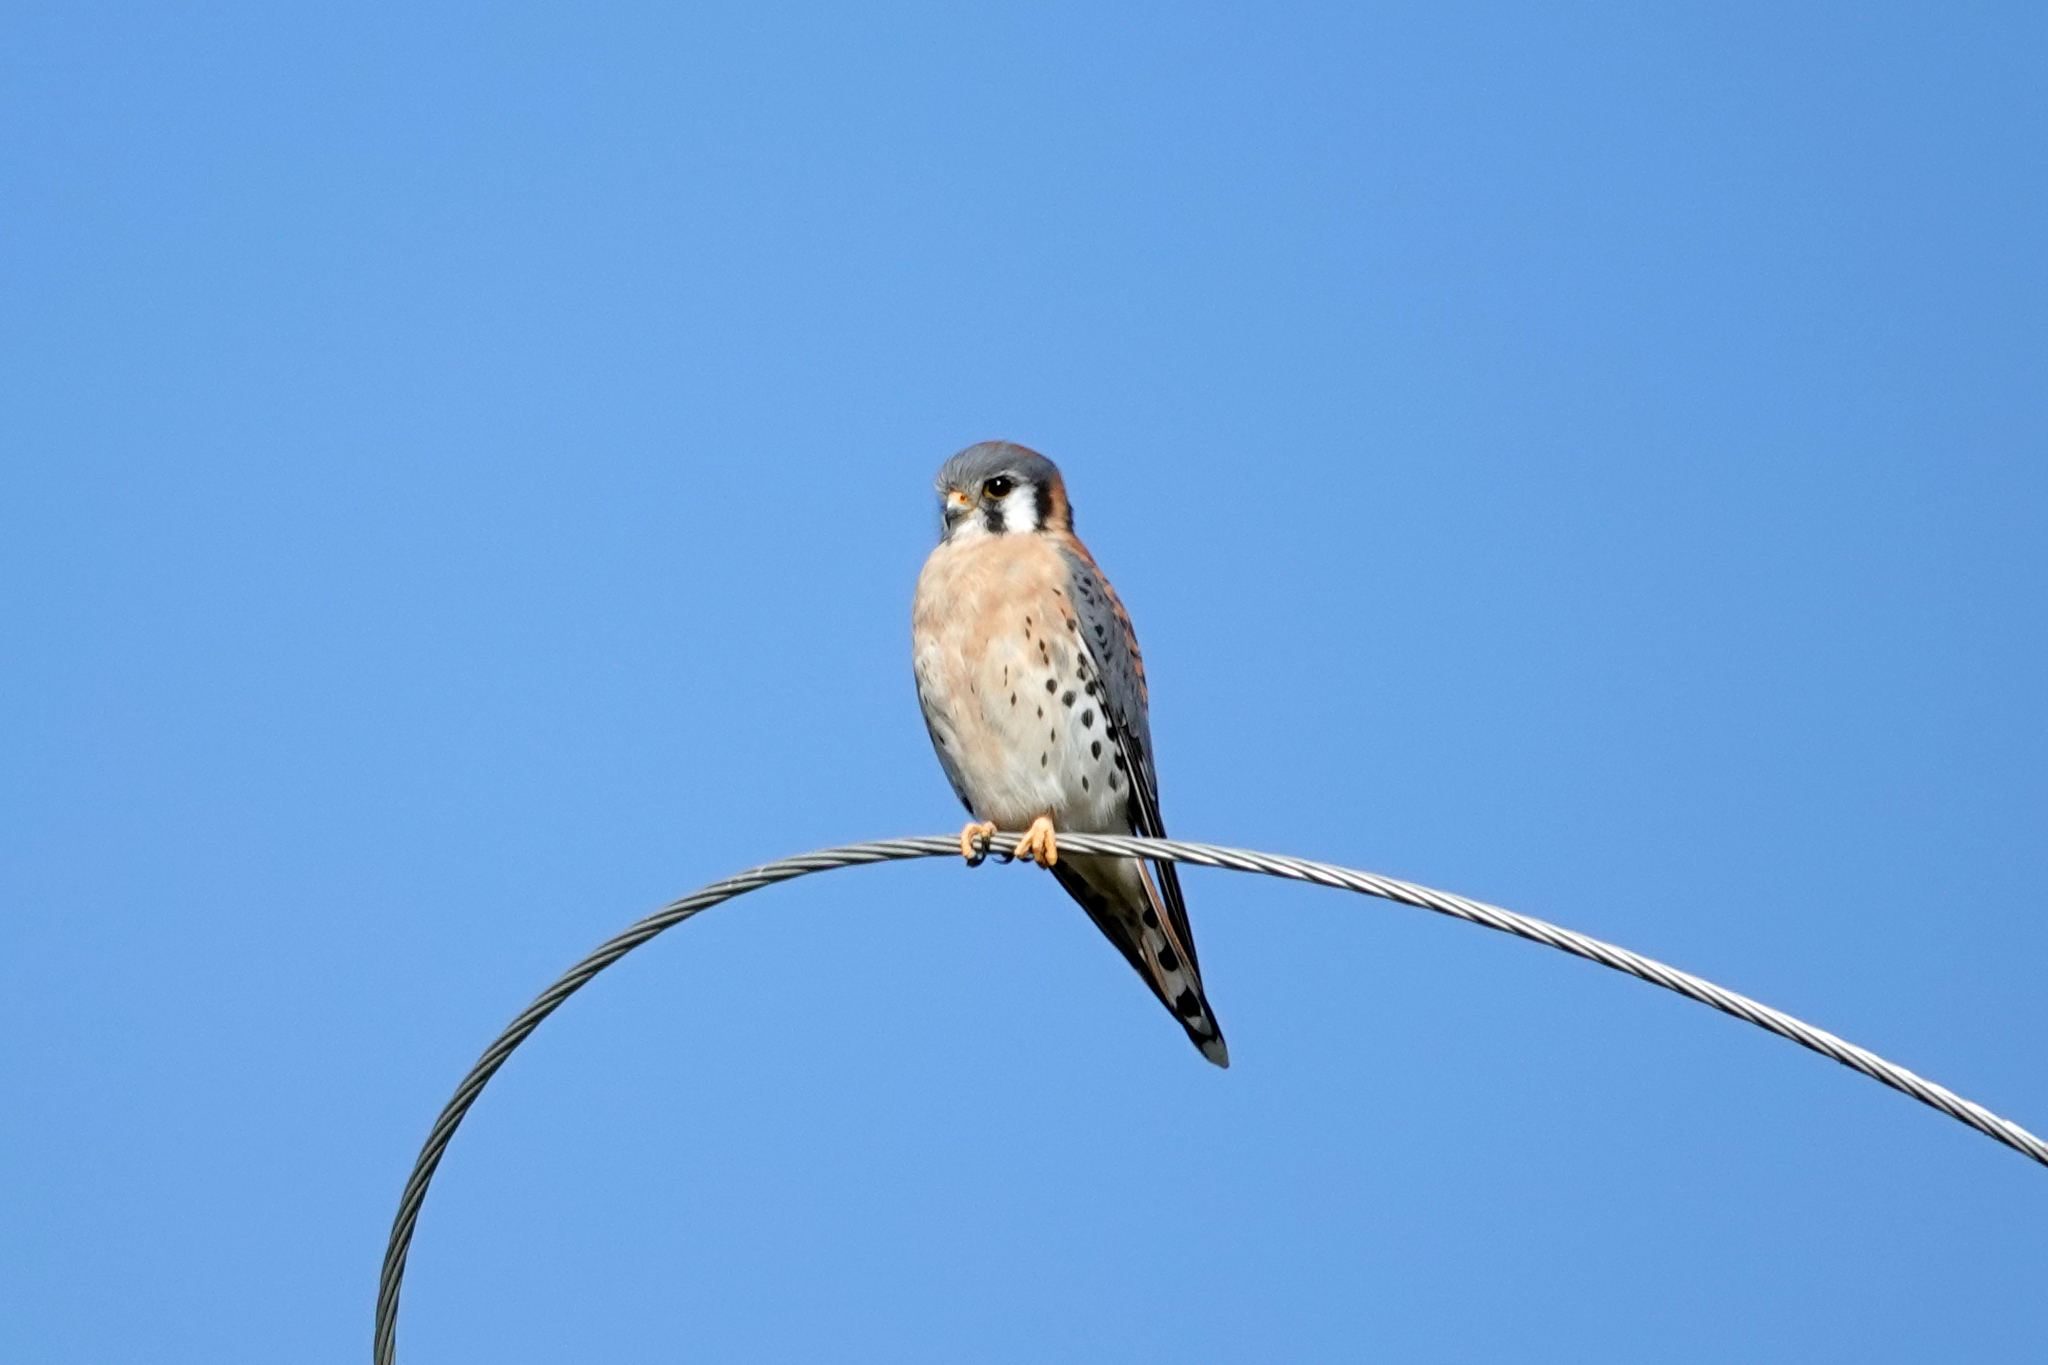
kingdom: Animalia
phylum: Chordata
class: Aves
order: Falconiformes
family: Falconidae
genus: Falco
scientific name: Falco sparverius
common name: American kestrel
